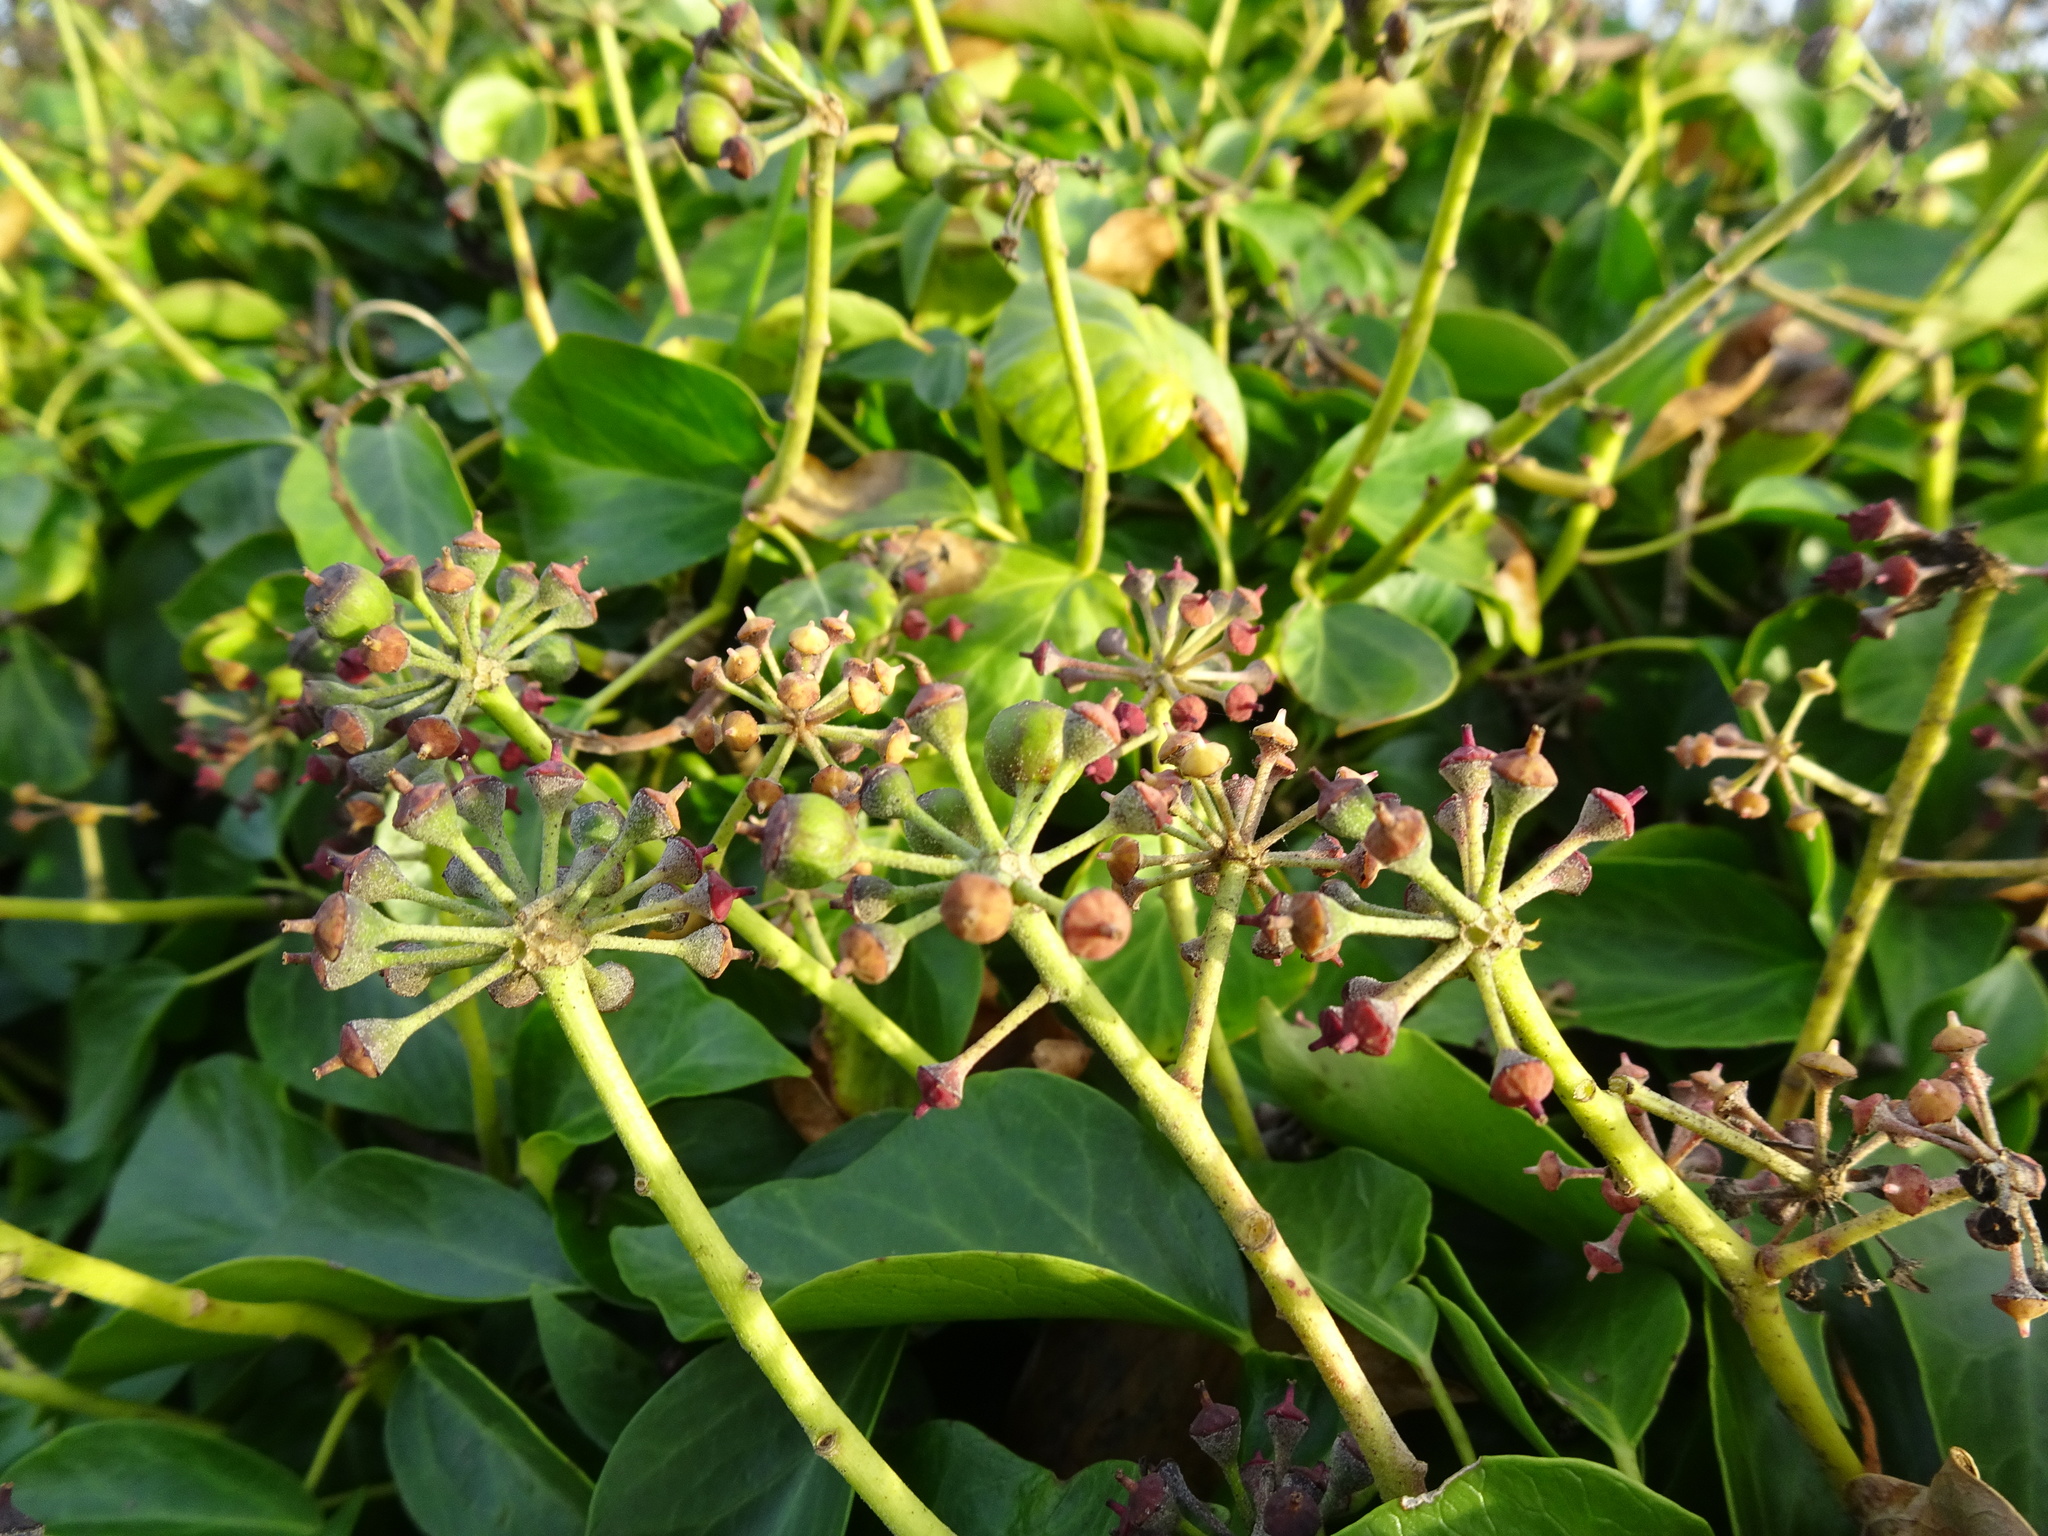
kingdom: Plantae
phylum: Tracheophyta
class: Magnoliopsida
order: Apiales
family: Araliaceae
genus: Hedera
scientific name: Hedera helix
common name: Ivy
